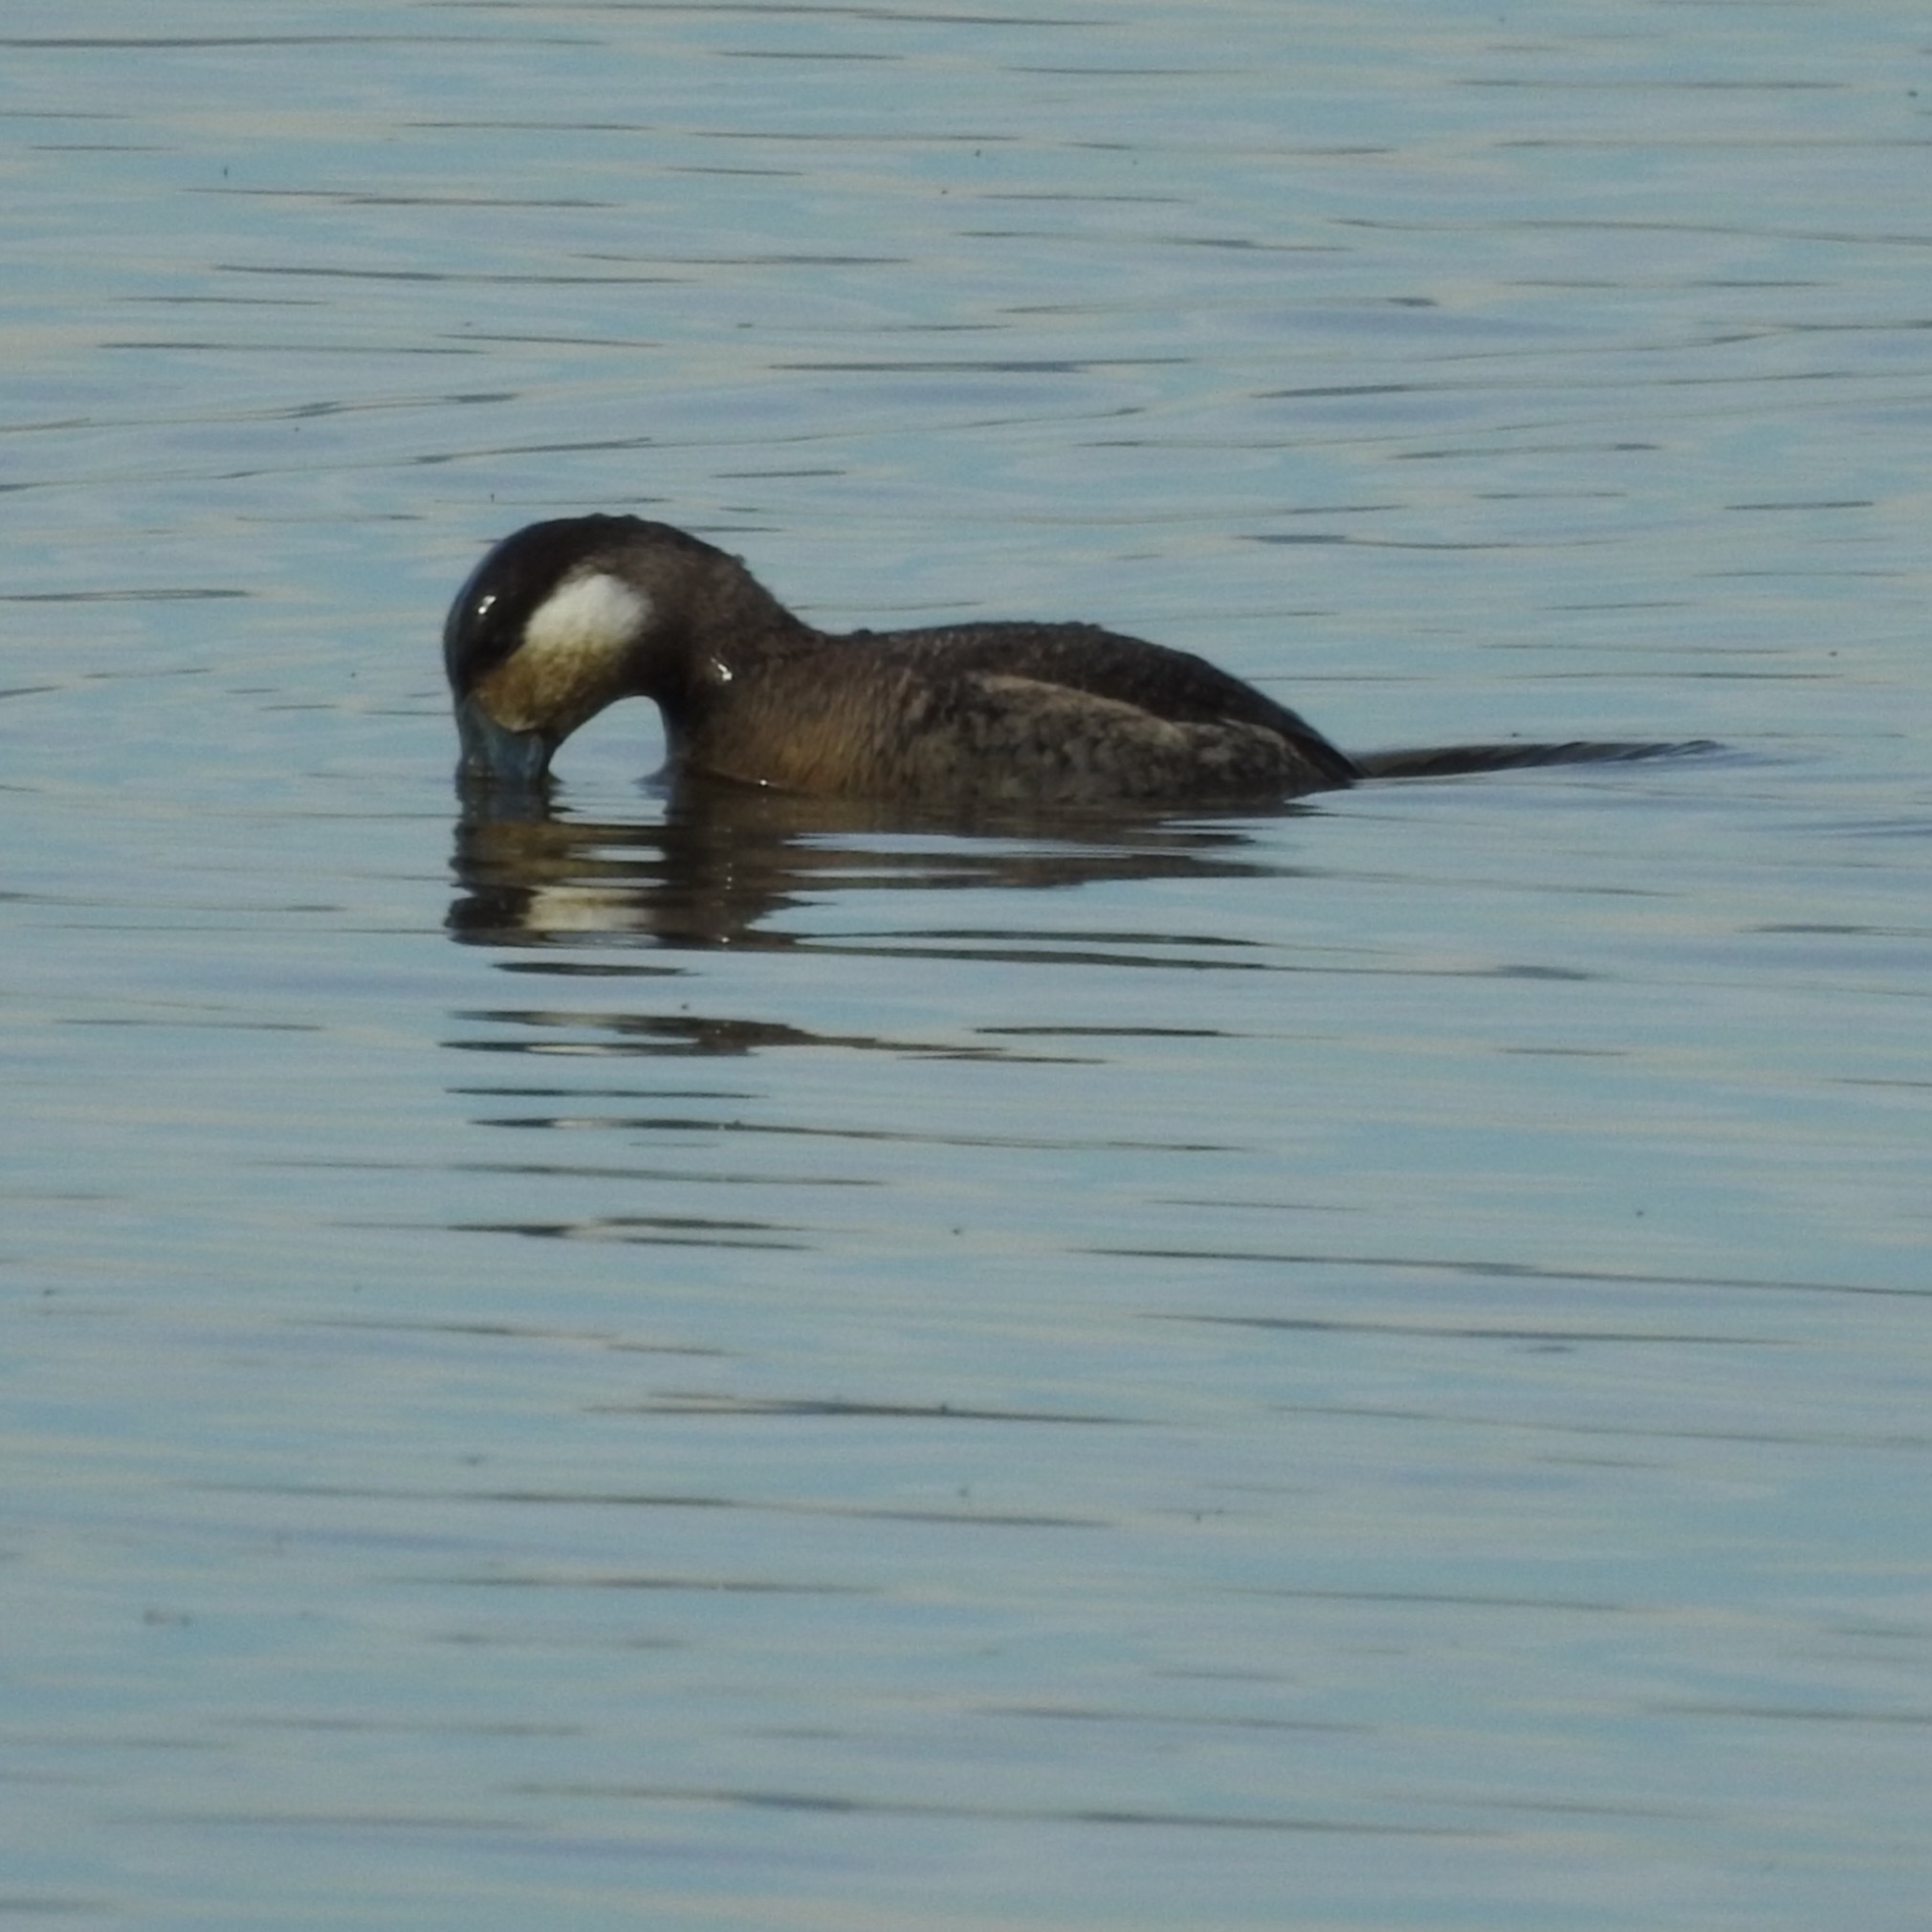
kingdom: Animalia
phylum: Chordata
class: Aves
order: Anseriformes
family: Anatidae
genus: Oxyura
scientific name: Oxyura jamaicensis
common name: Ruddy duck
